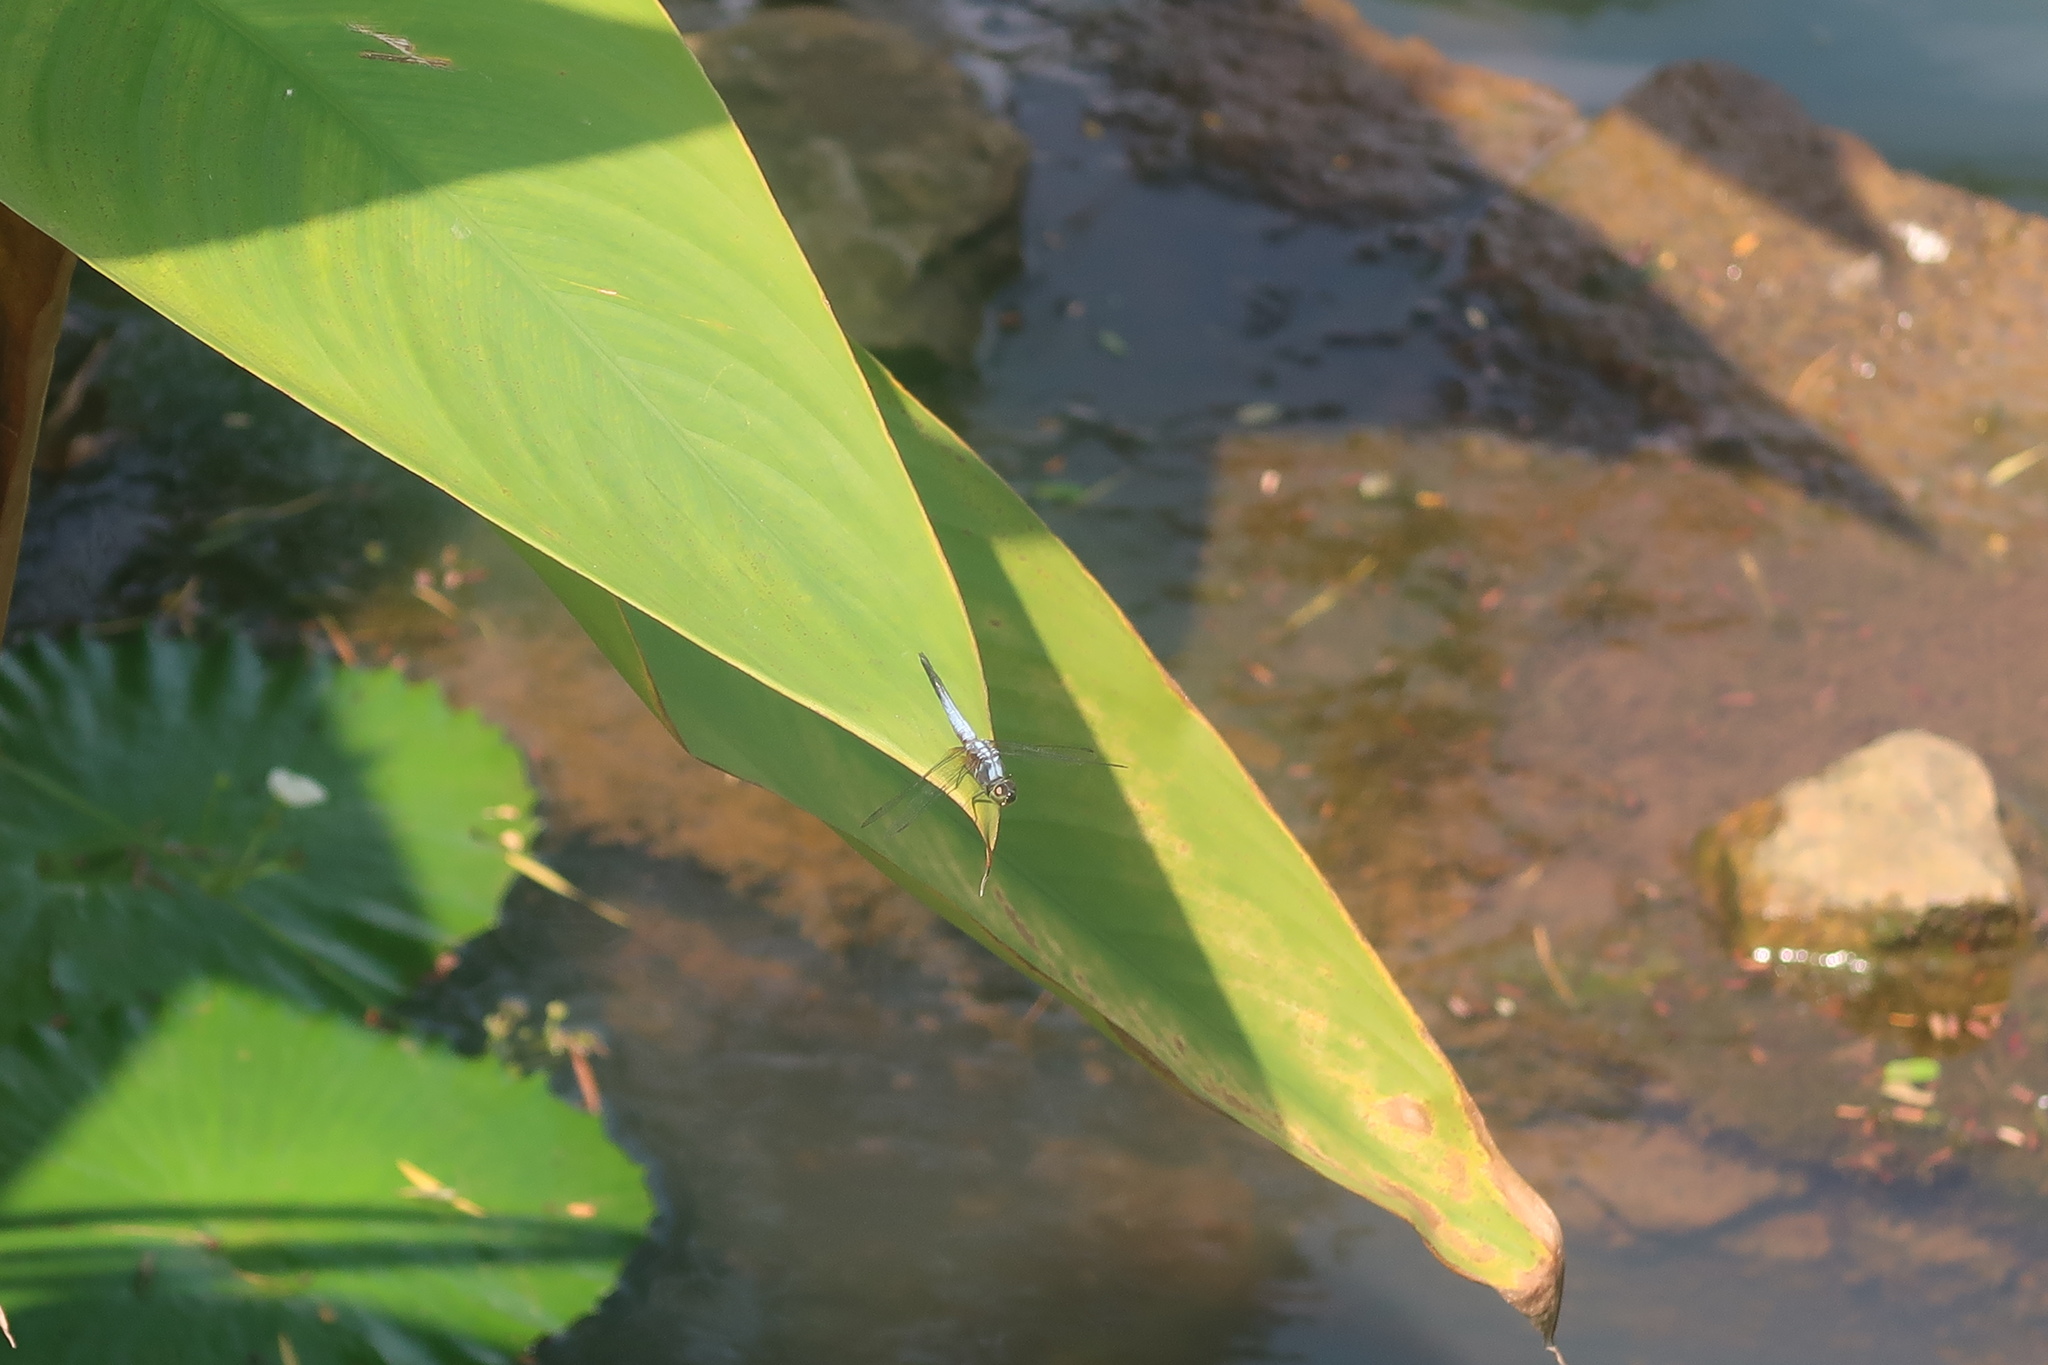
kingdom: Animalia
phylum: Arthropoda
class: Insecta
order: Odonata
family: Libellulidae
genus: Brachydiplax
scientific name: Brachydiplax chalybea
